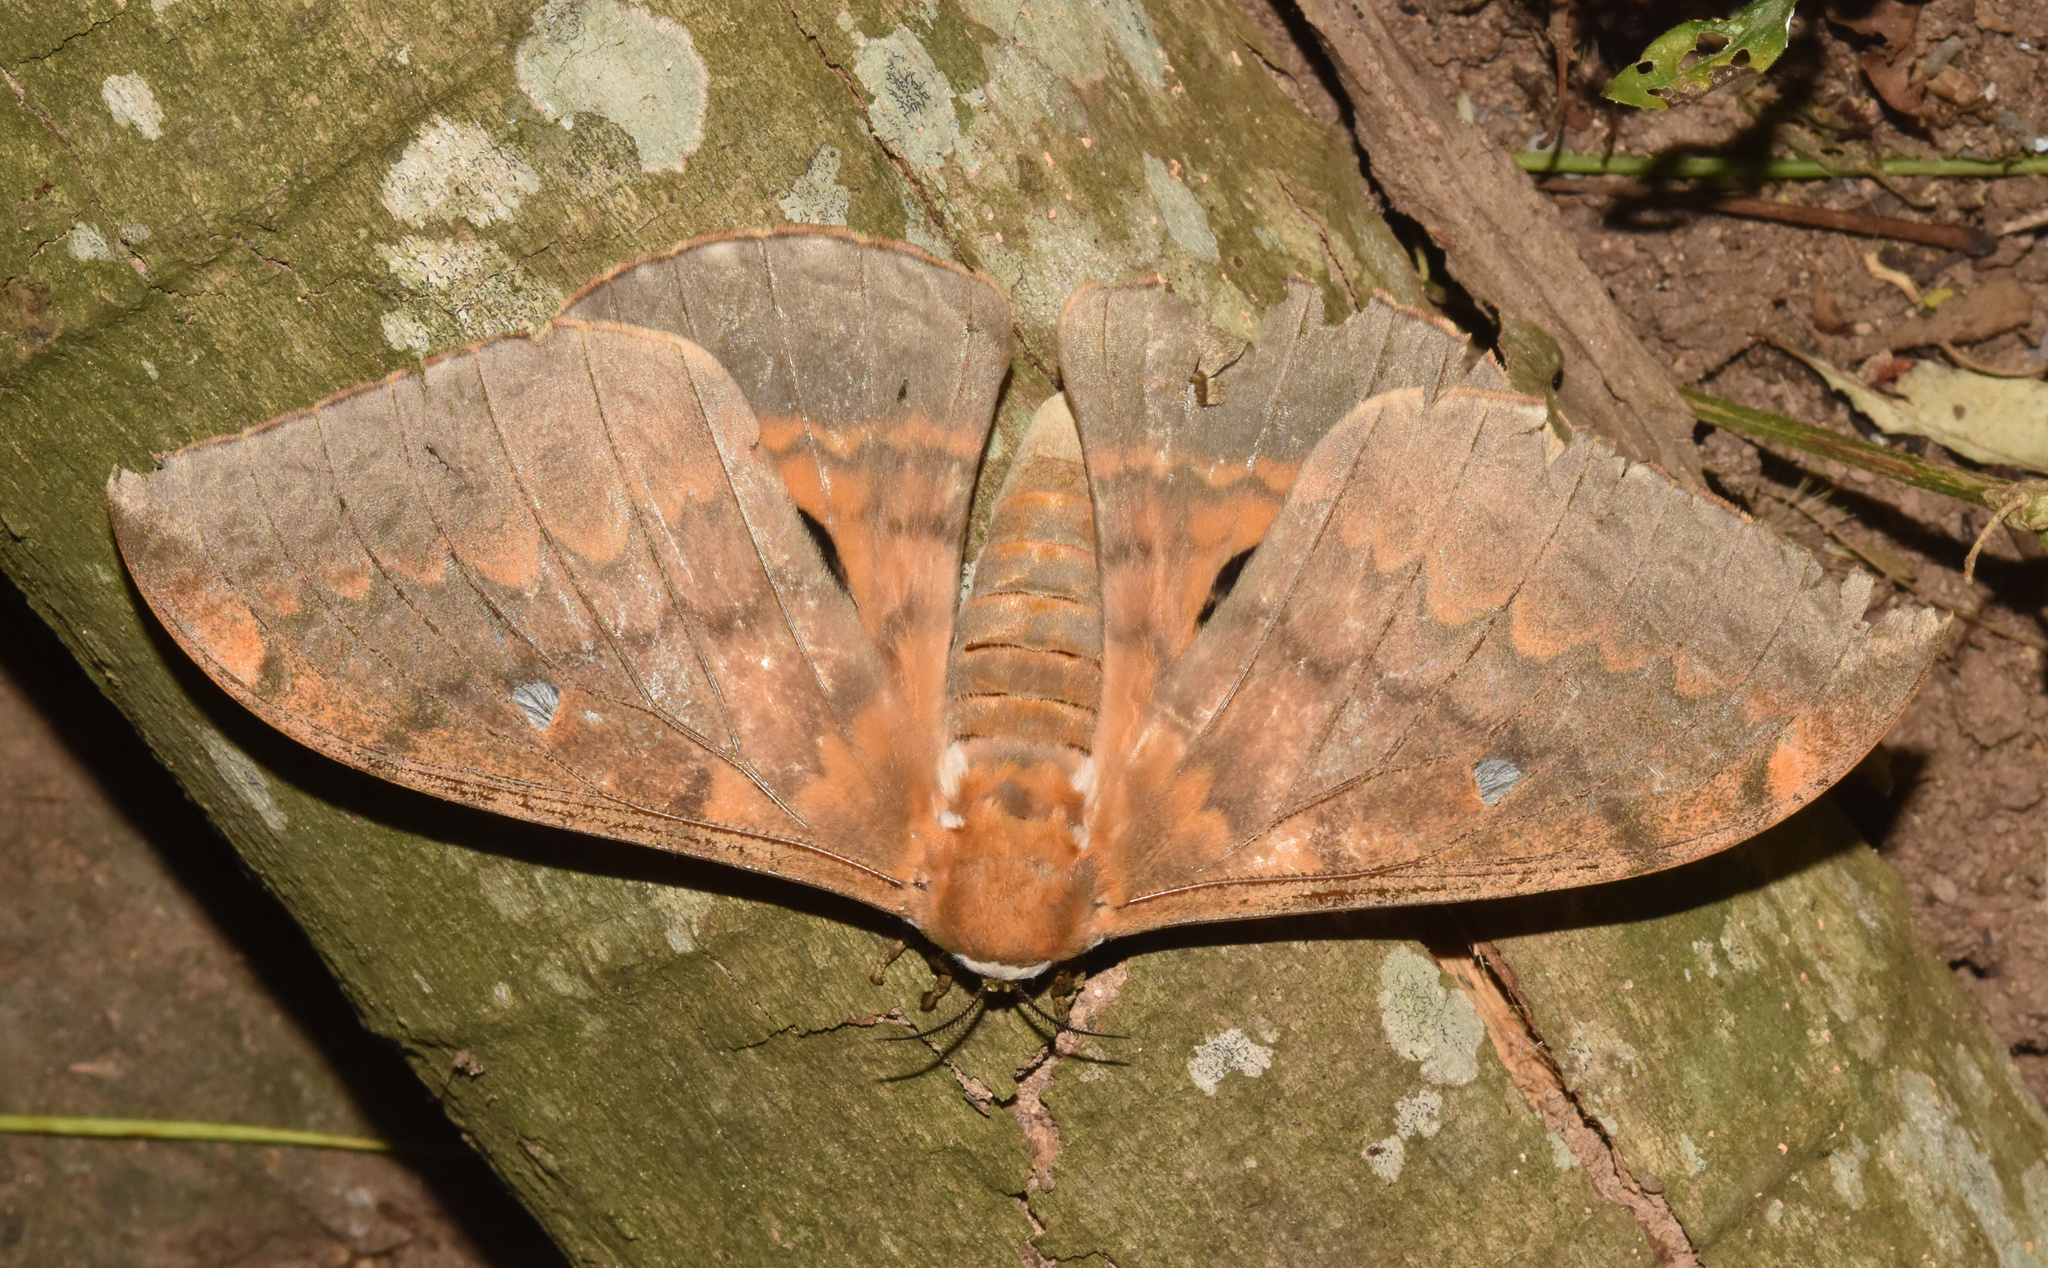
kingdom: Animalia
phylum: Arthropoda
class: Insecta
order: Lepidoptera
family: Saturniidae
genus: Pseudobunaea
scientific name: Pseudobunaea tyrrhena
